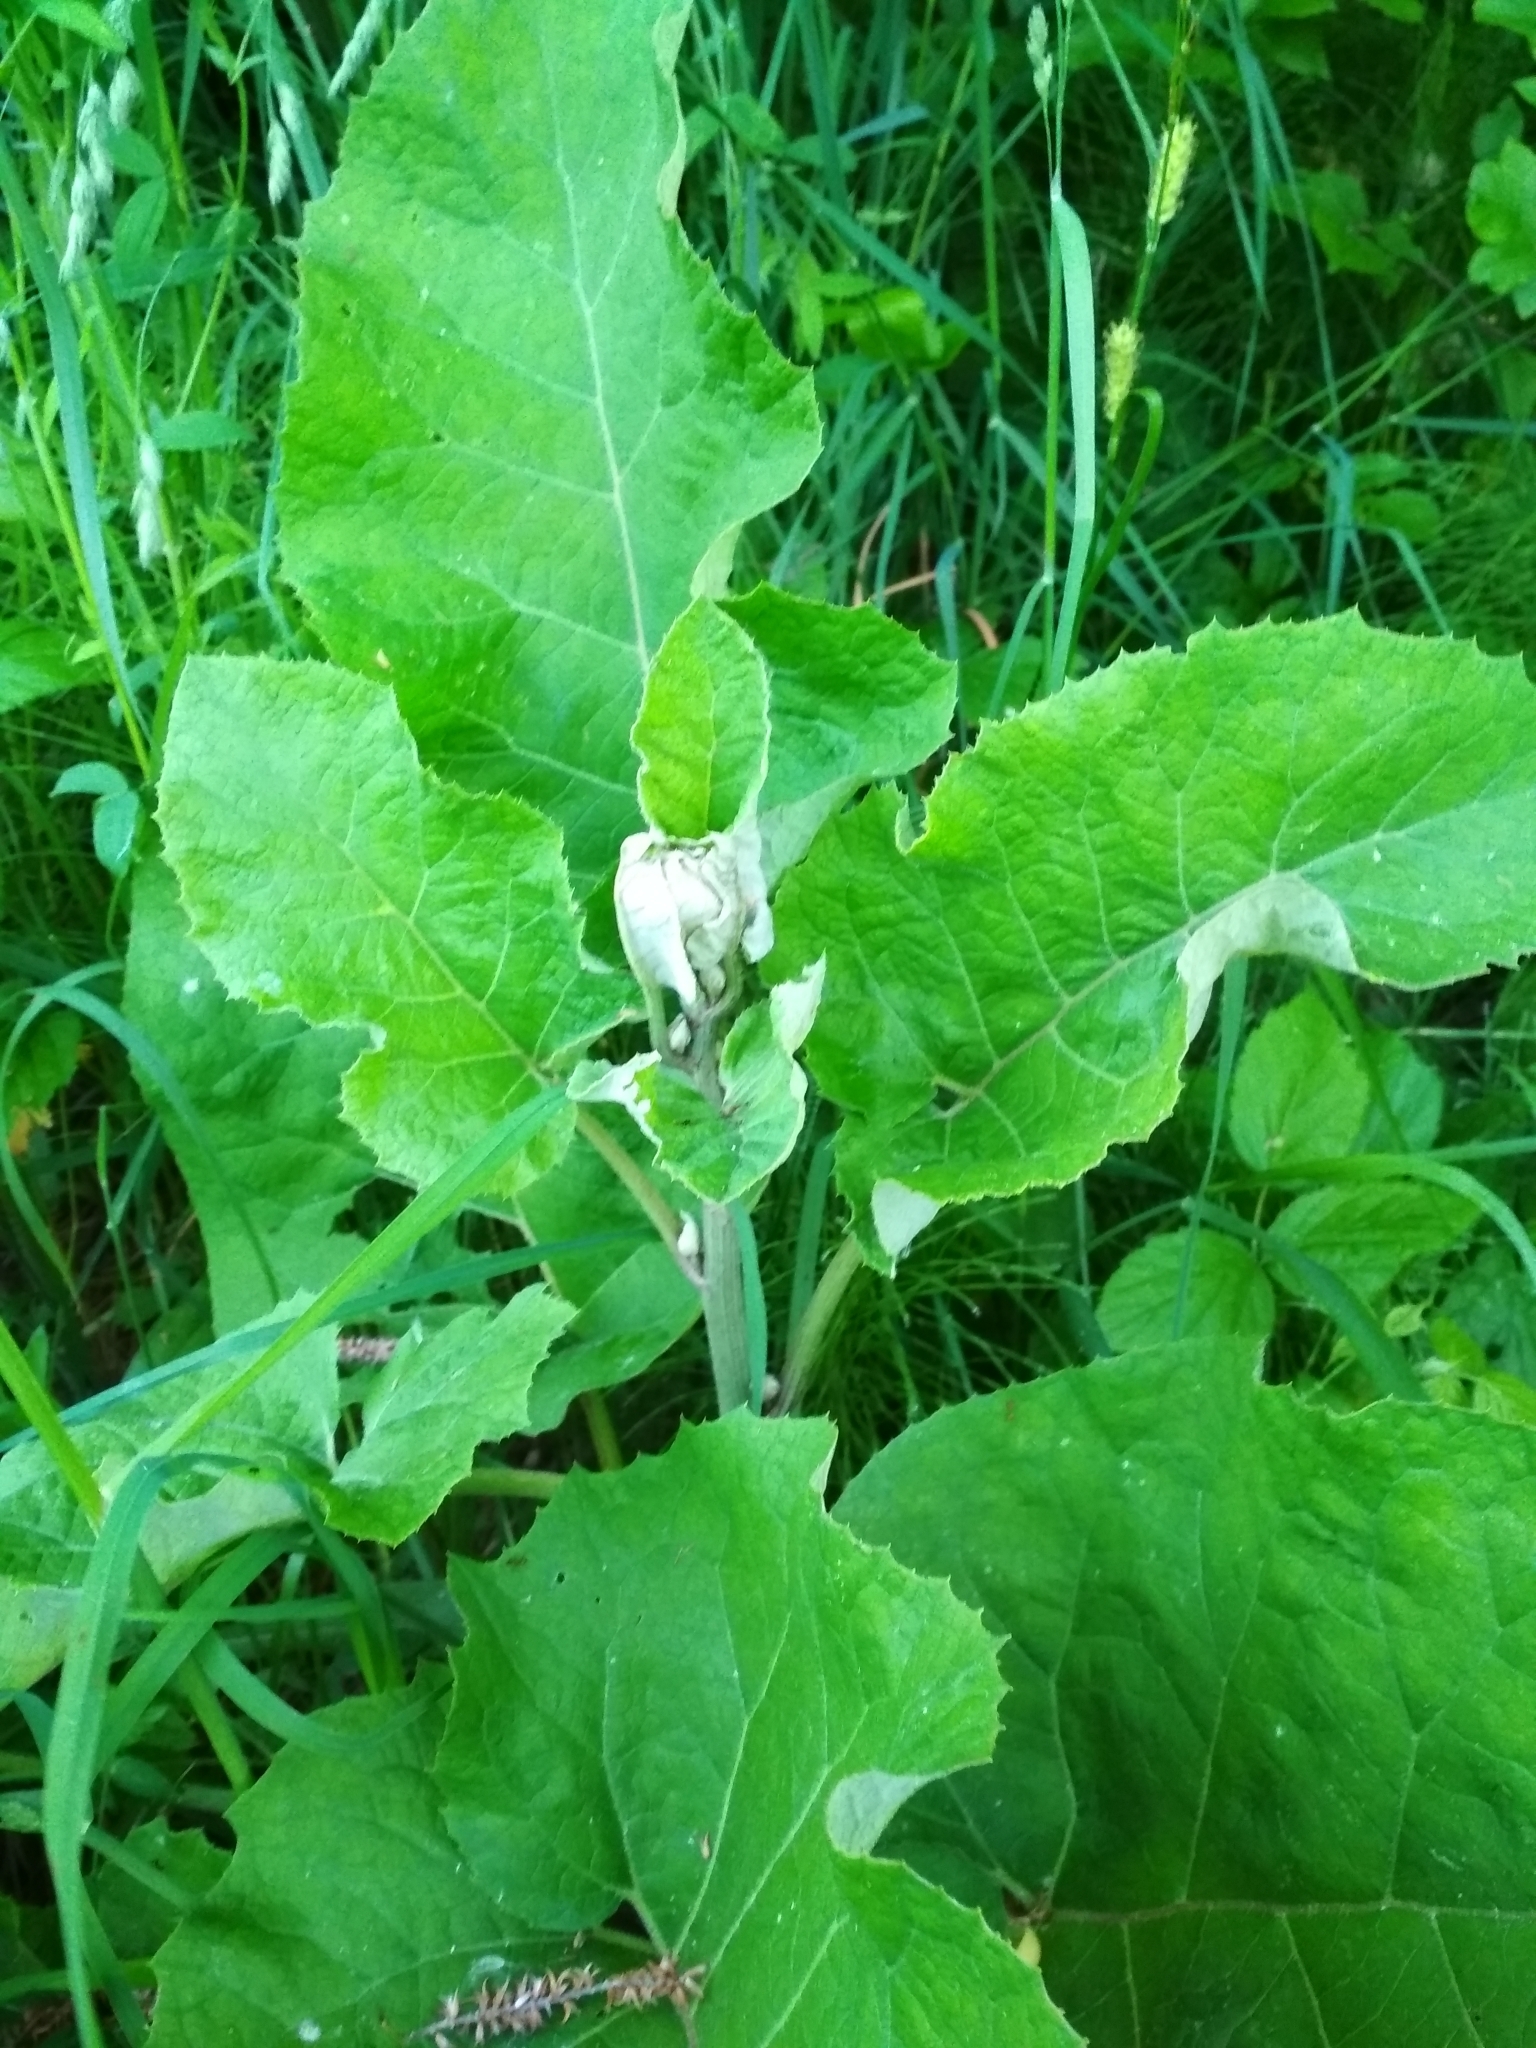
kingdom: Plantae
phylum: Tracheophyta
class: Magnoliopsida
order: Asterales
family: Asteraceae
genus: Arctium
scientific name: Arctium tomentosum
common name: Woolly burdock
